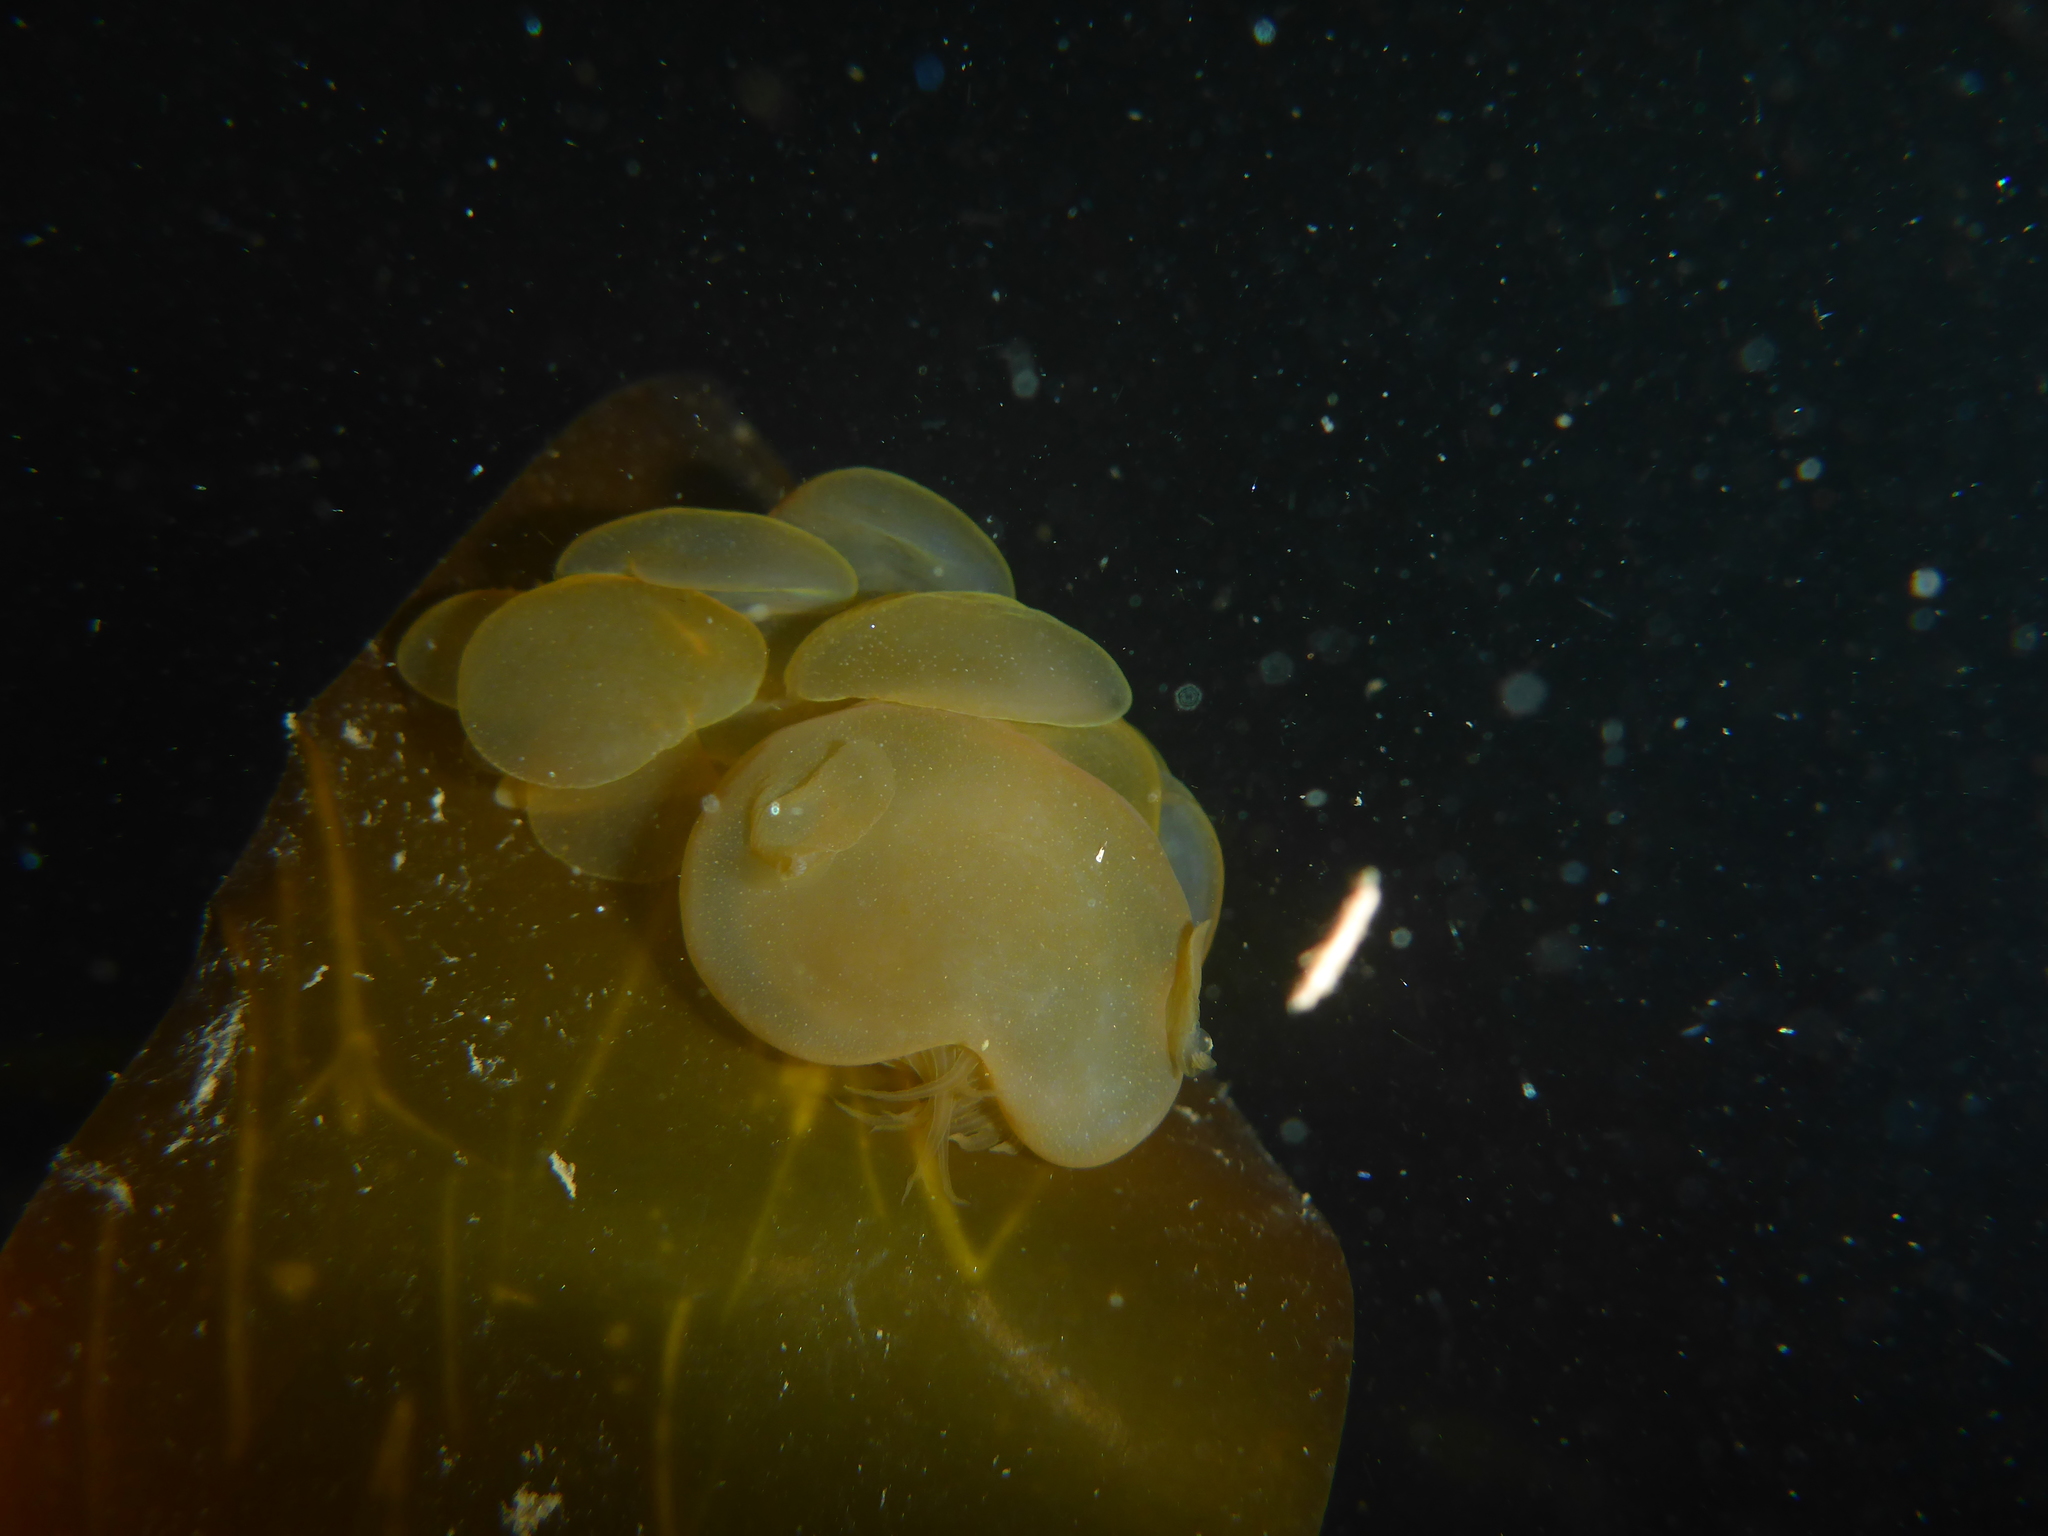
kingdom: Animalia
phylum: Mollusca
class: Gastropoda
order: Nudibranchia
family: Tethydidae
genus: Melibe
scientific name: Melibe leonina
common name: Lion nudibranch
